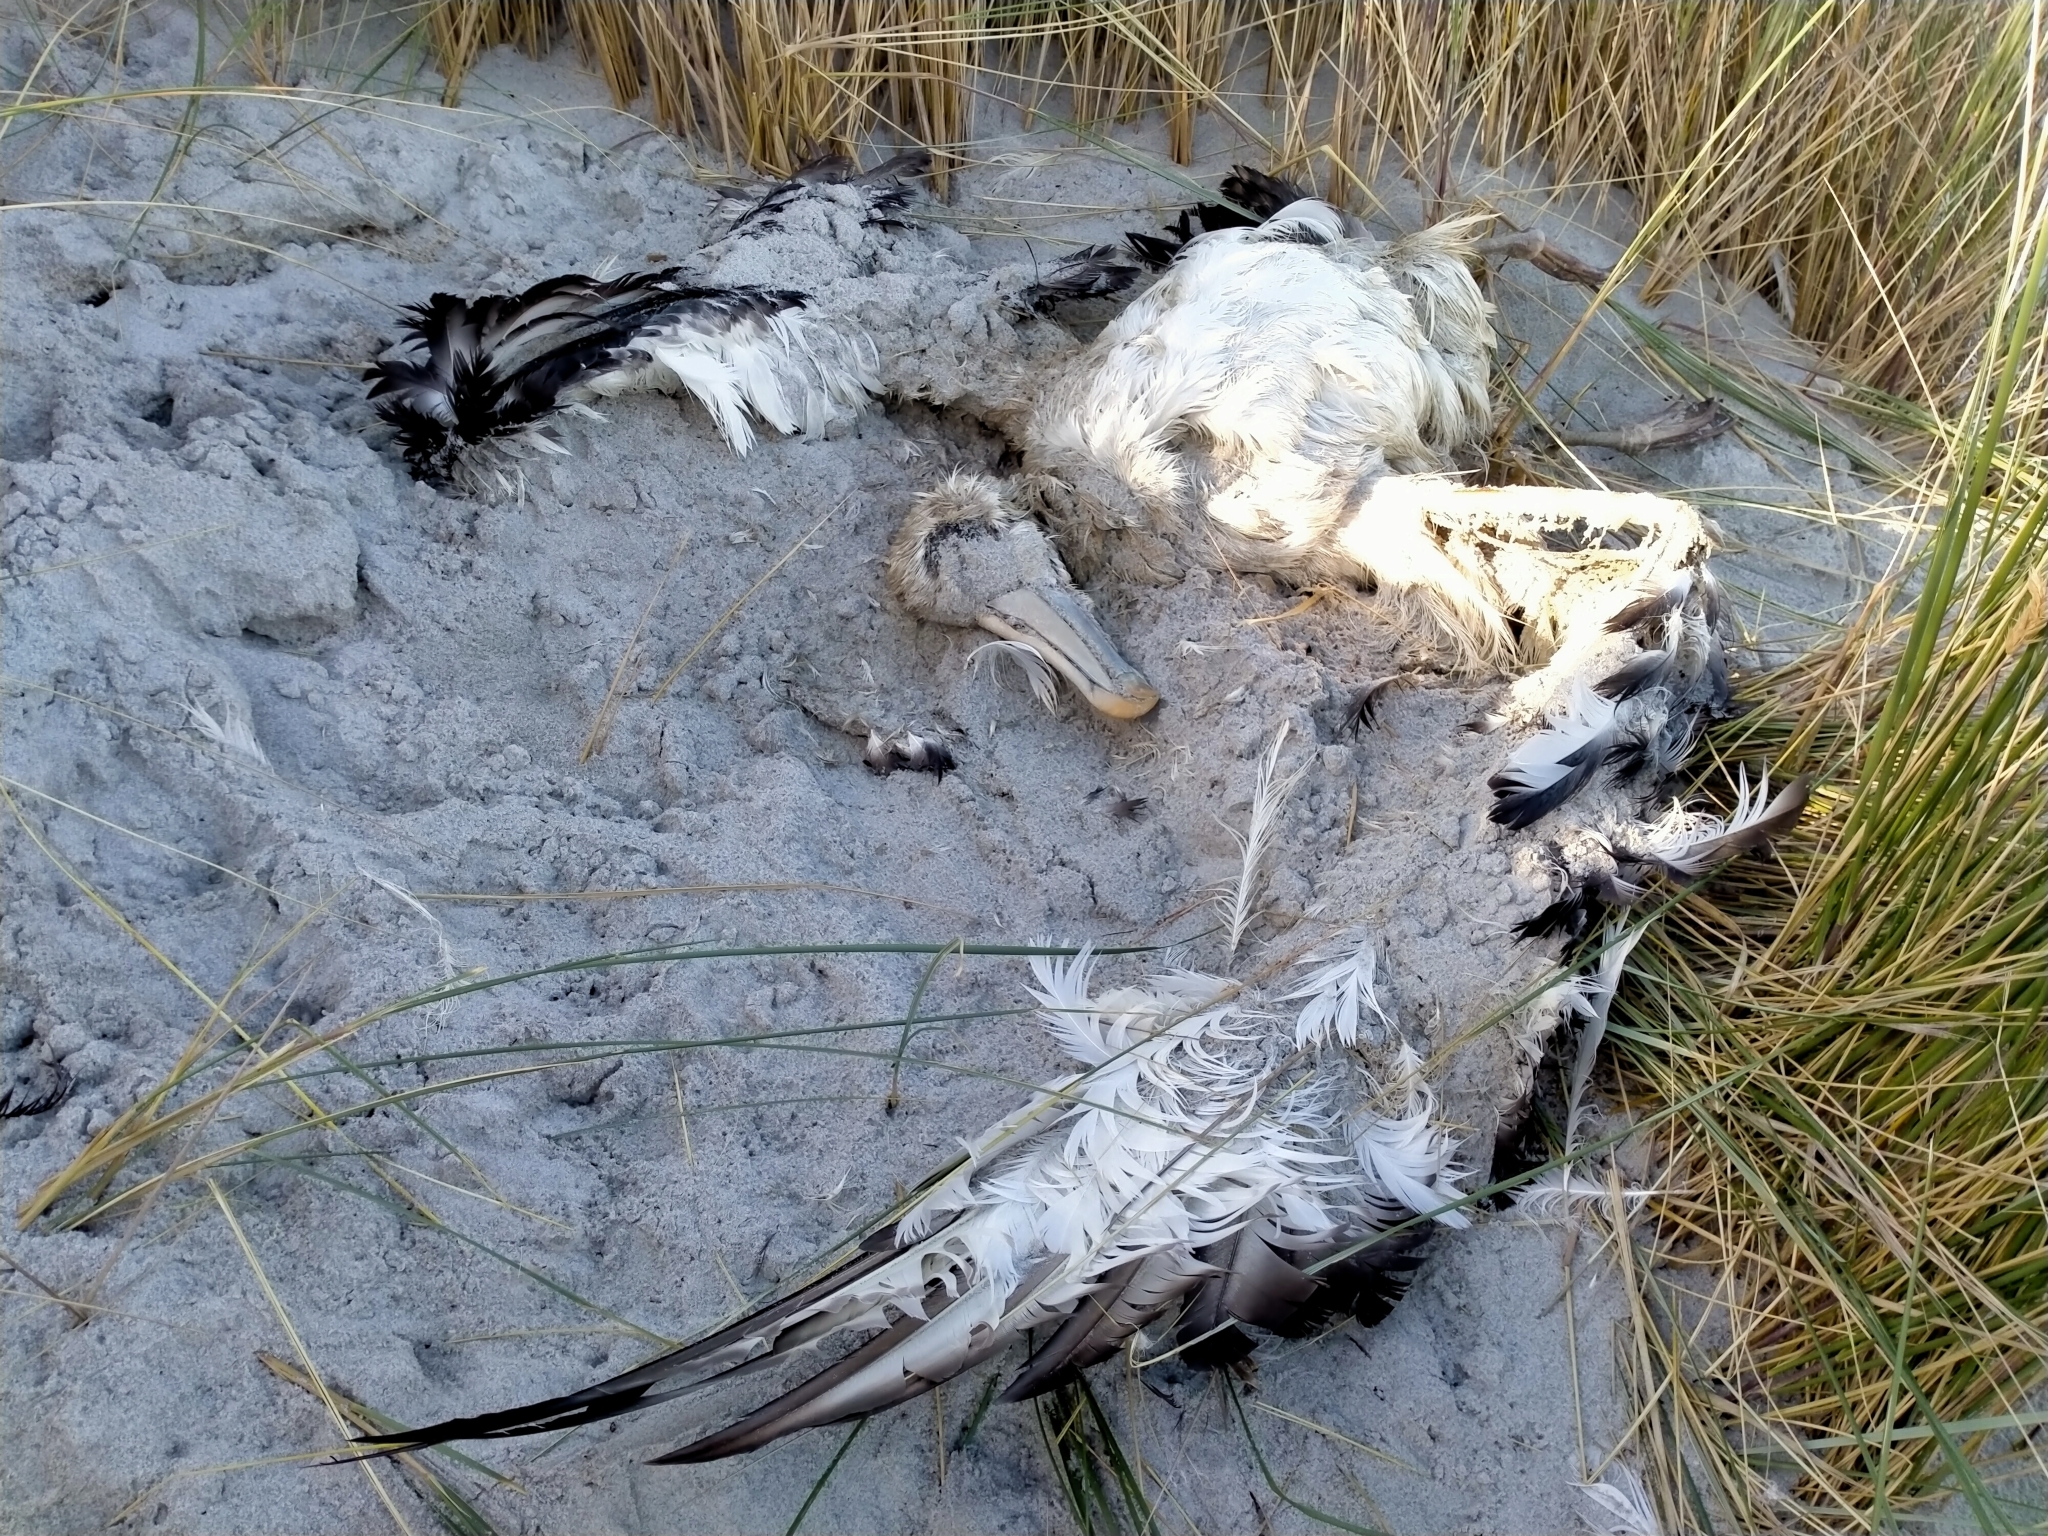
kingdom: Animalia
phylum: Chordata
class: Aves
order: Procellariiformes
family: Diomedeidae
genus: Thalassarche
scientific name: Thalassarche cauta
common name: Shy albatross
